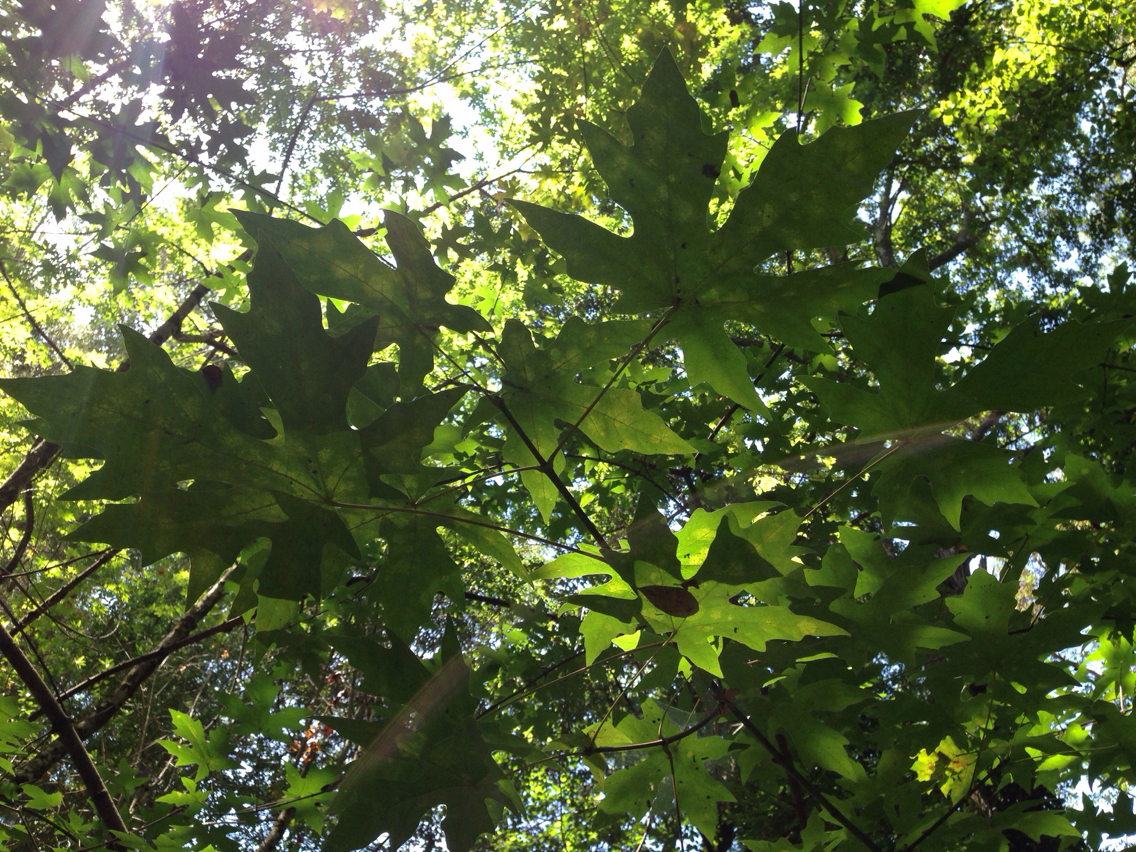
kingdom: Plantae
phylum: Tracheophyta
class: Magnoliopsida
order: Sapindales
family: Sapindaceae
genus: Acer
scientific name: Acer macrophyllum
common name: Oregon maple
